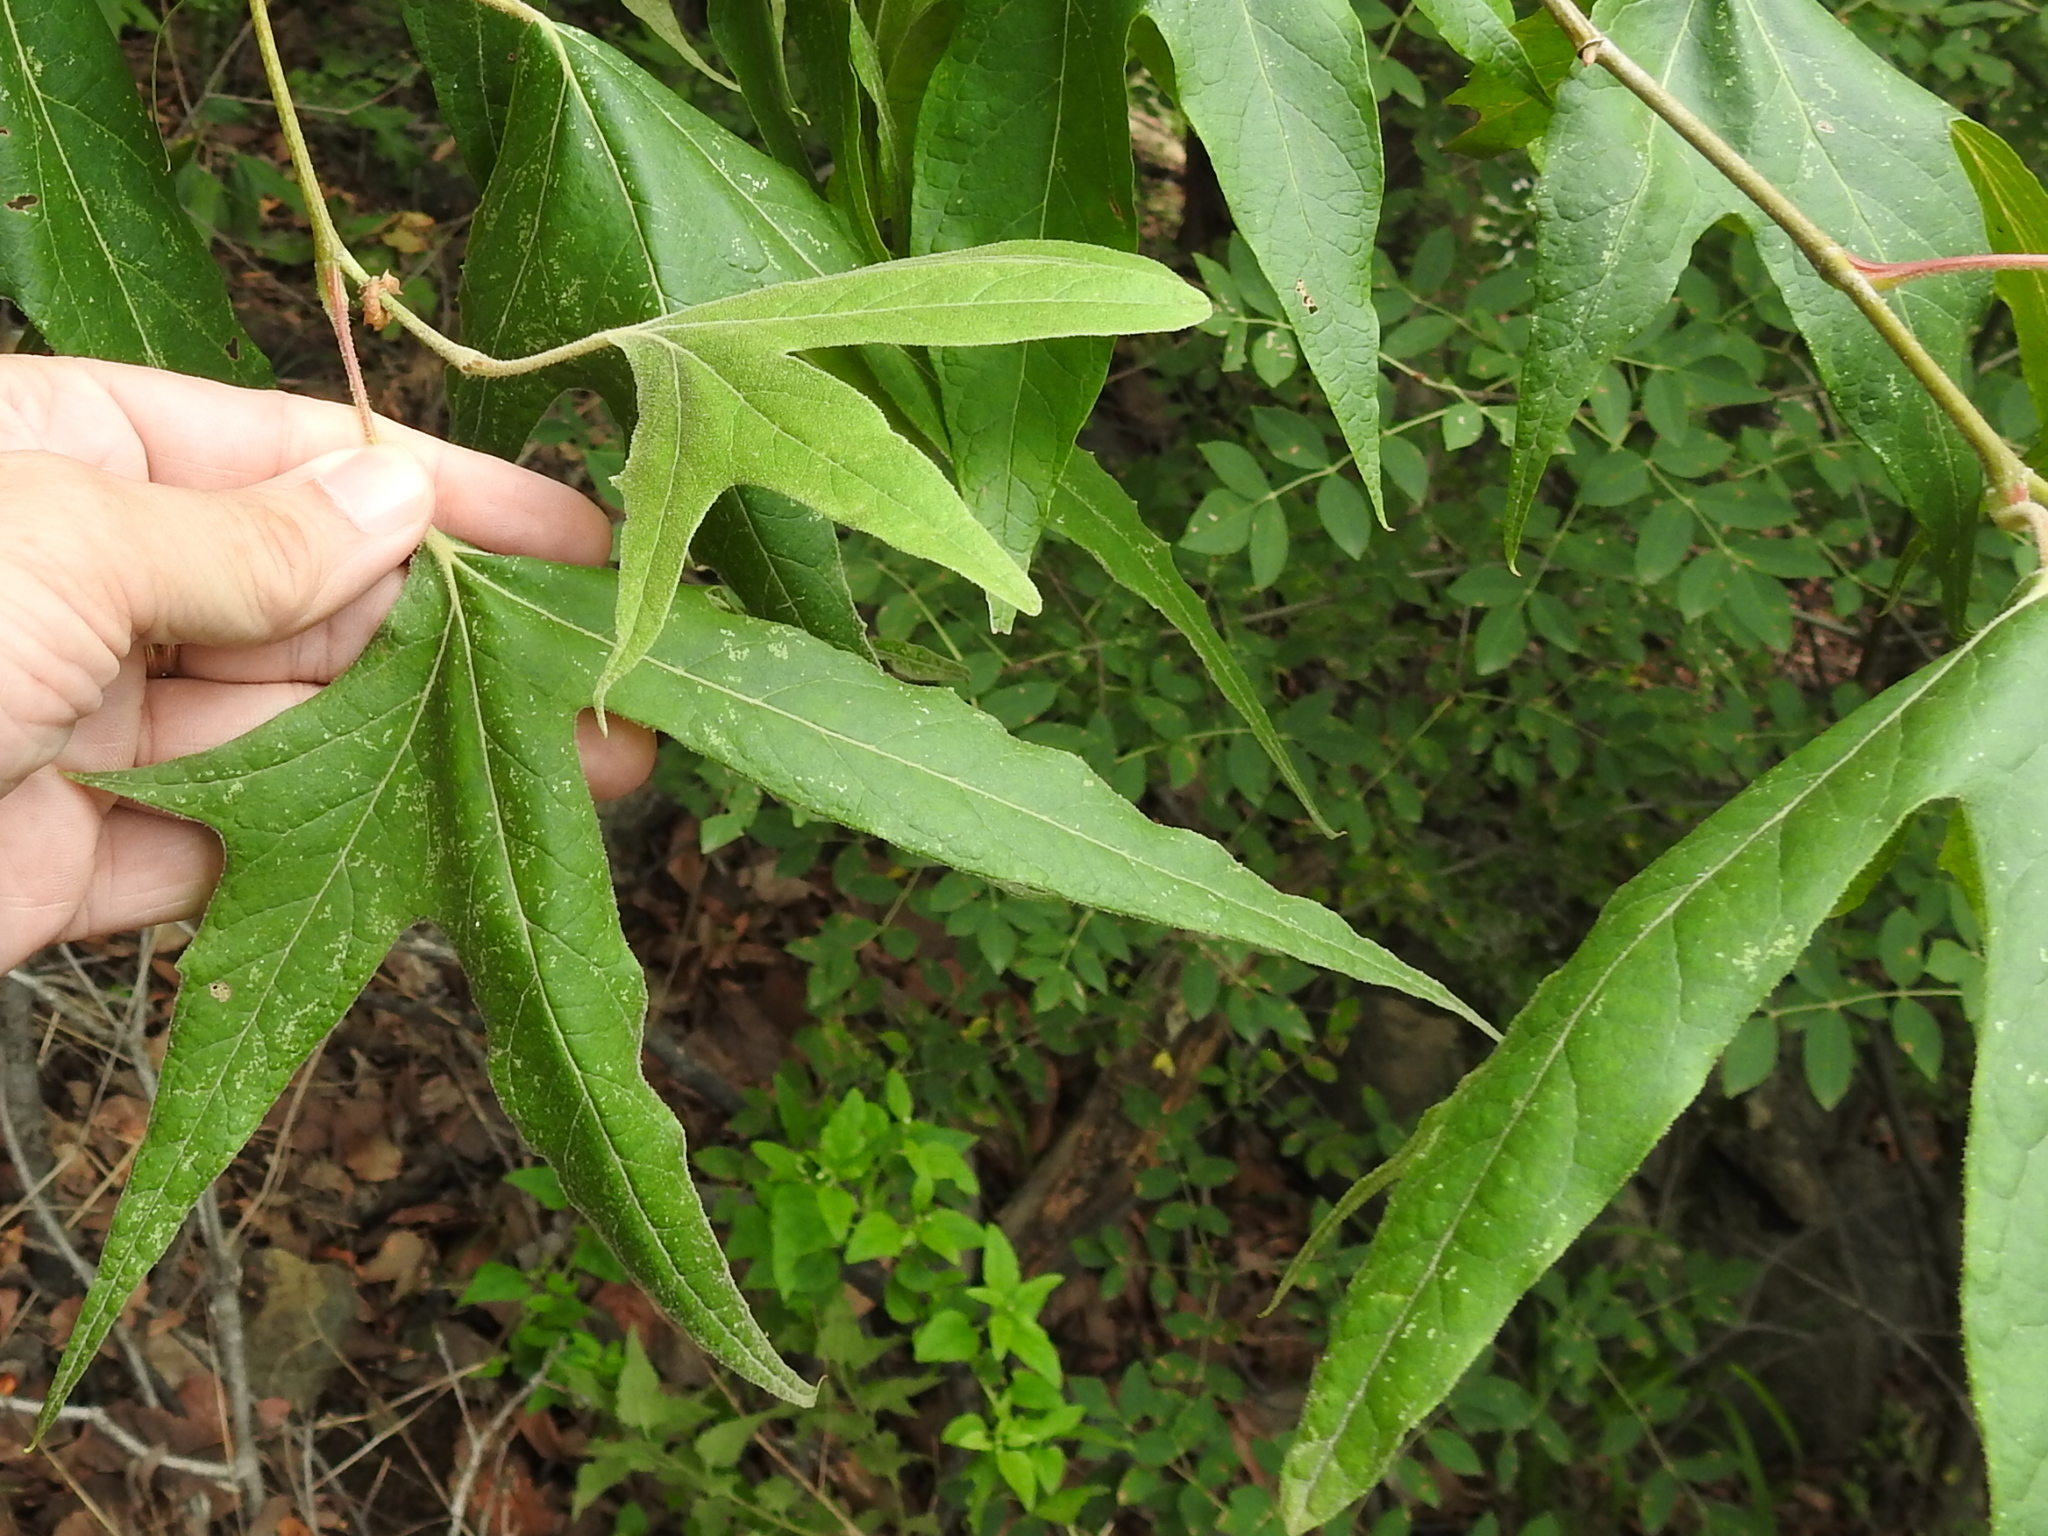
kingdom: Plantae
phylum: Tracheophyta
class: Magnoliopsida
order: Proteales
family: Platanaceae
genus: Platanus
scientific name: Platanus wrightii
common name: Arizona sycamore
